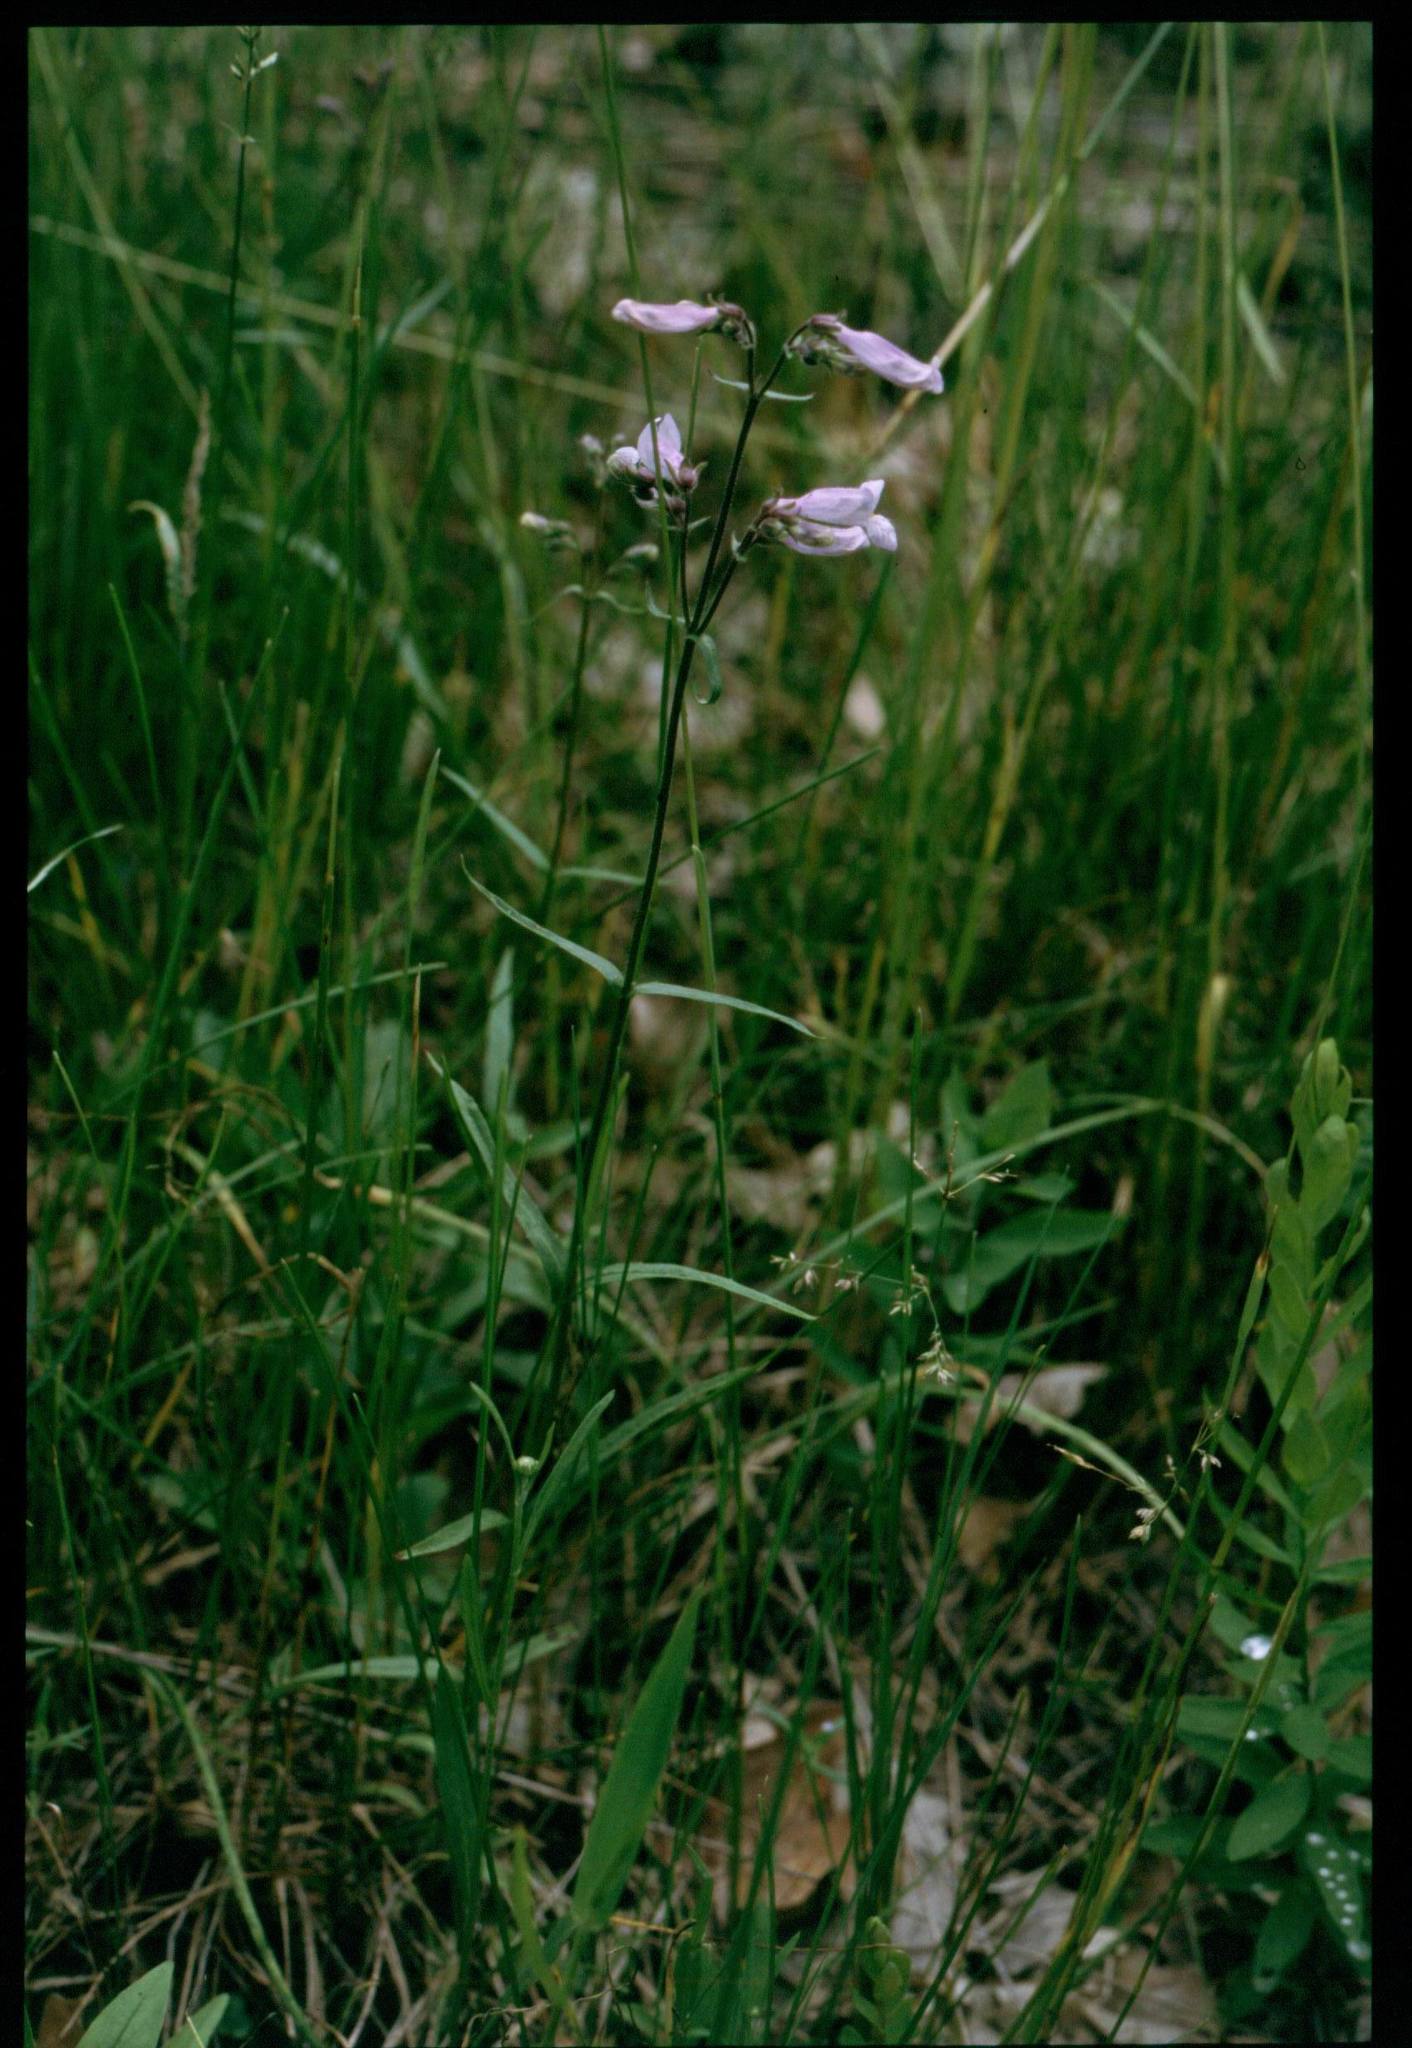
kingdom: Plantae
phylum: Tracheophyta
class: Magnoliopsida
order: Lamiales
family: Plantaginaceae
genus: Penstemon
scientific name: Penstemon gracilis
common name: Slender beardtongue
